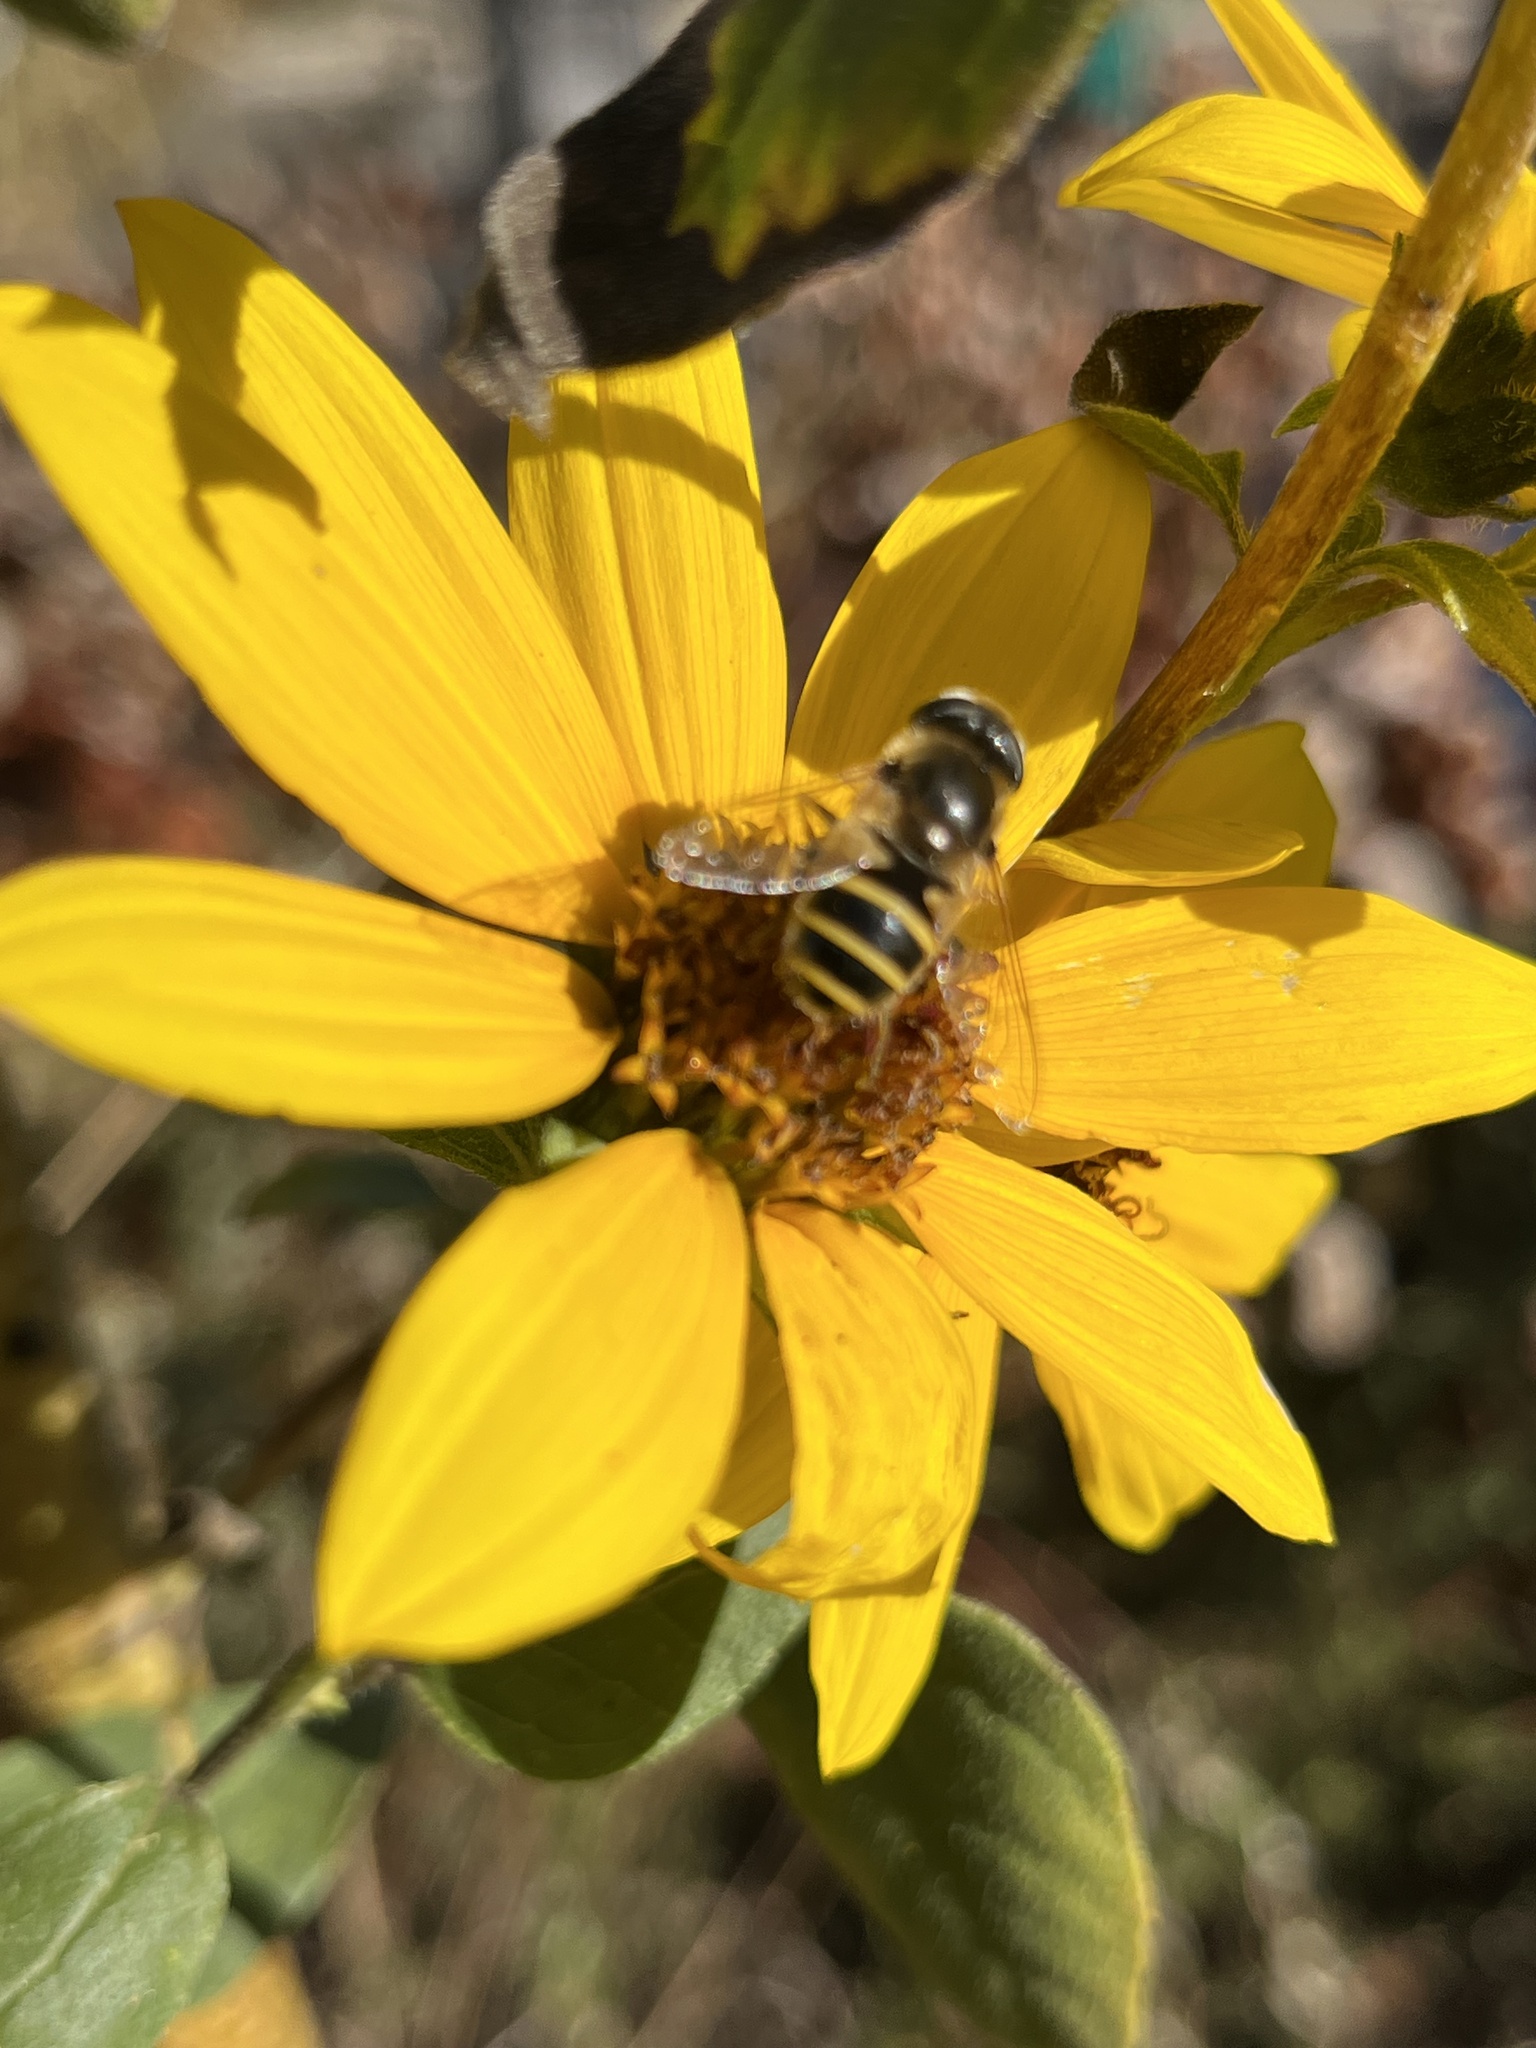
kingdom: Animalia
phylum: Arthropoda
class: Insecta
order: Diptera
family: Syrphidae
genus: Eristalis
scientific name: Eristalis hirta
